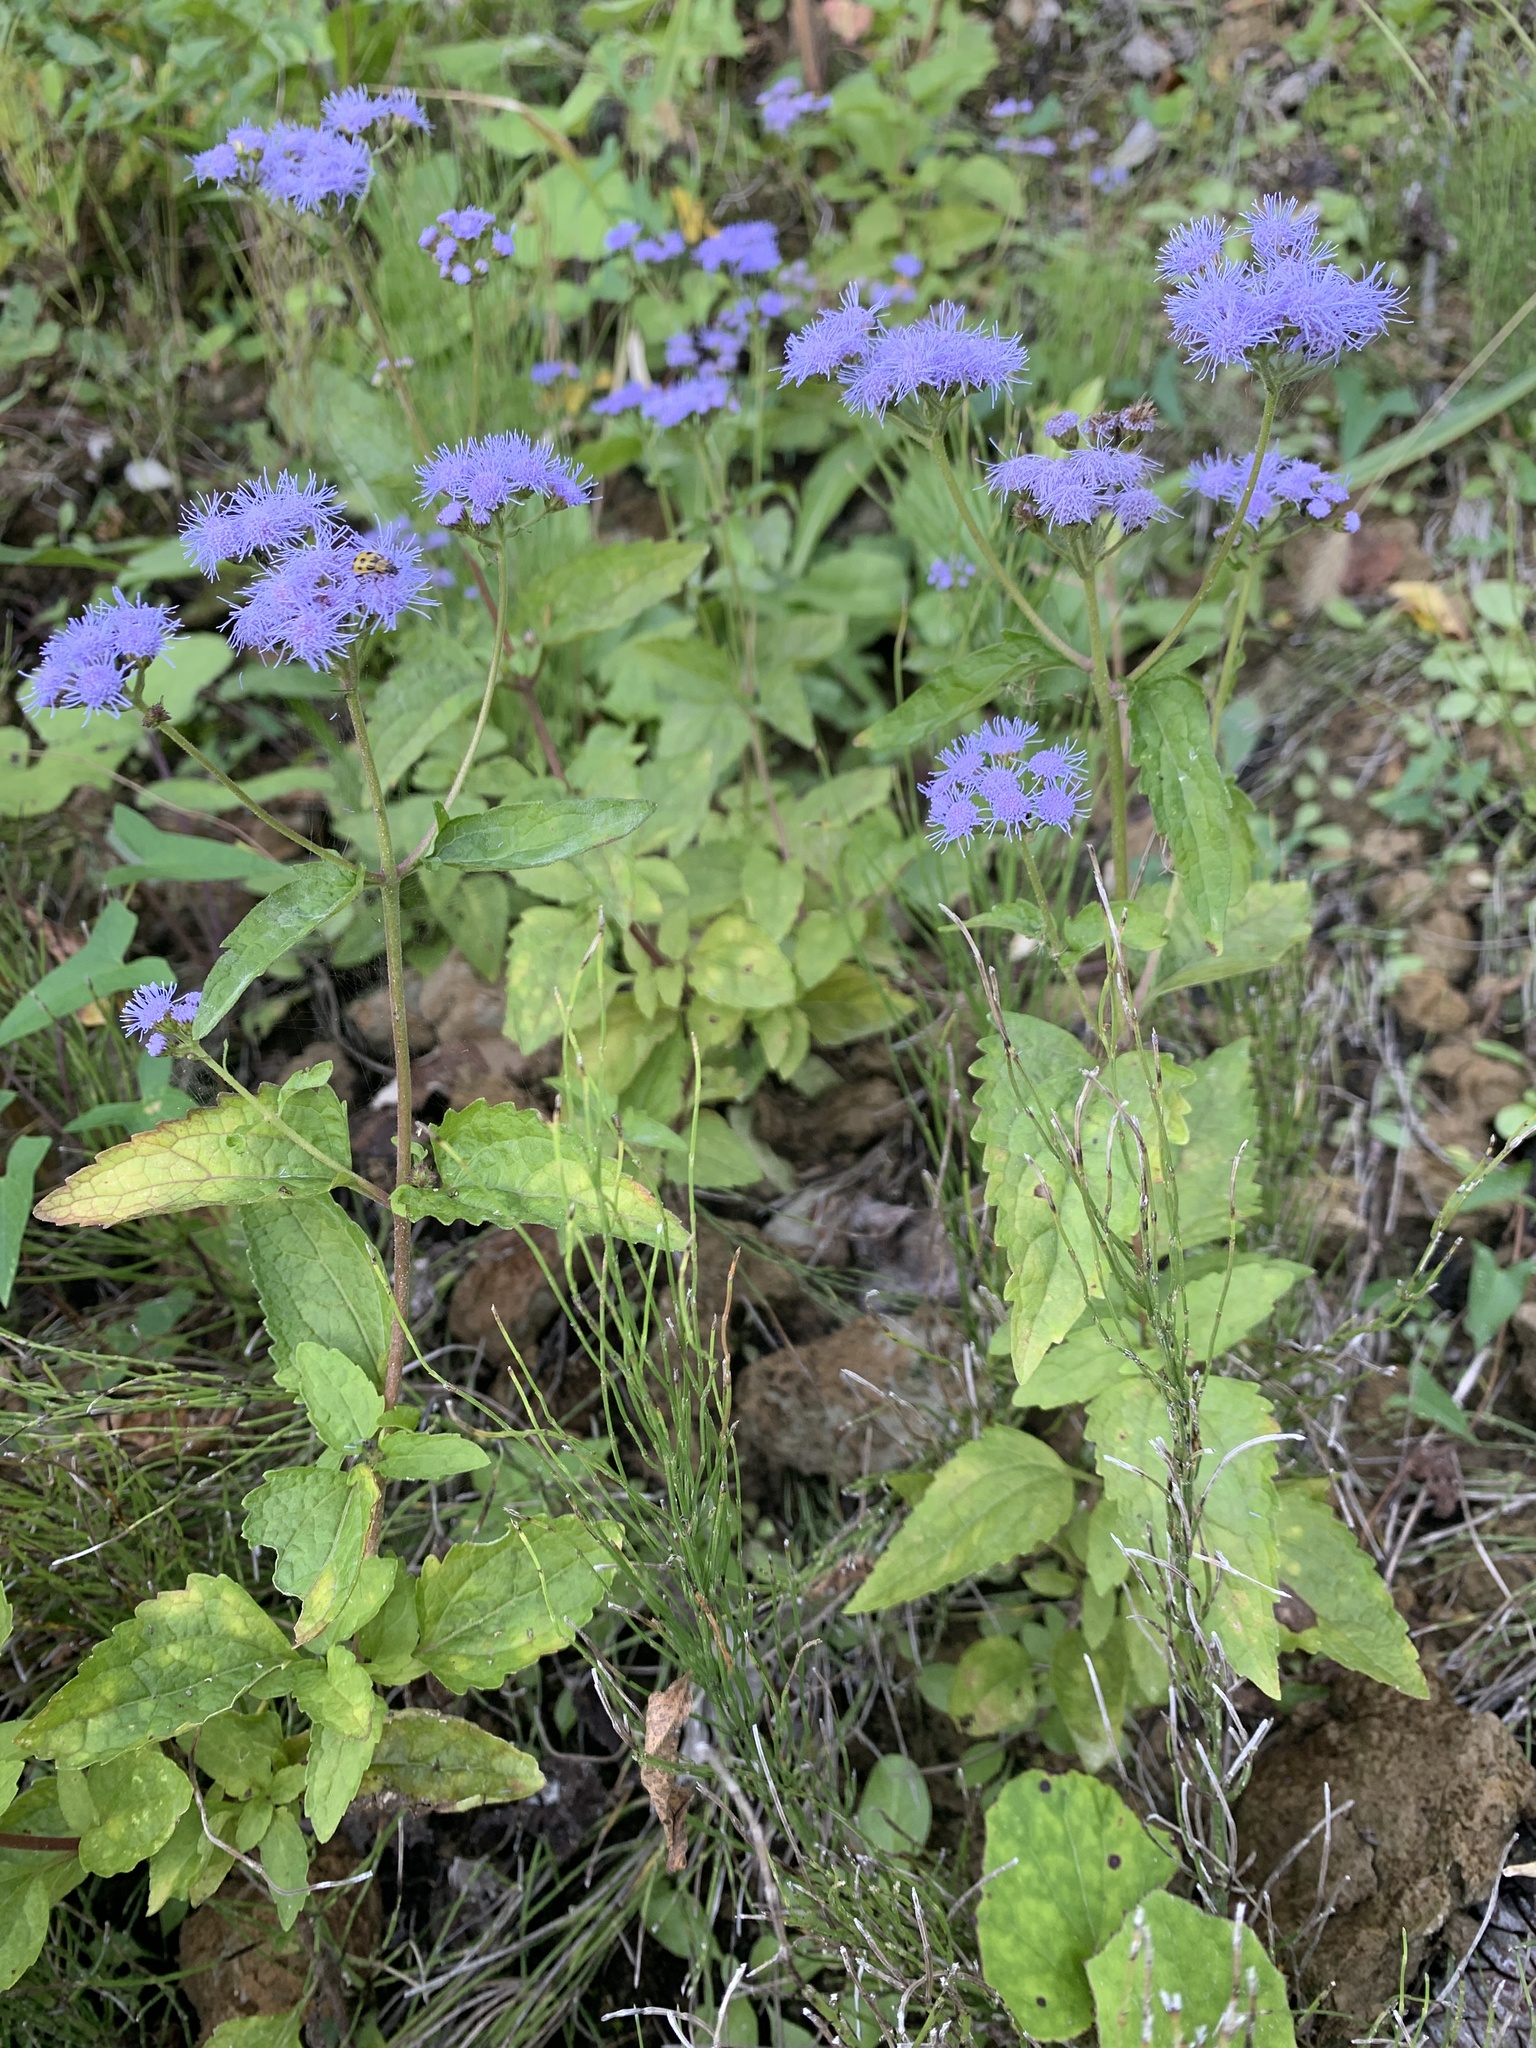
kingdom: Plantae
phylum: Tracheophyta
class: Magnoliopsida
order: Asterales
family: Asteraceae
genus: Conoclinium
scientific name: Conoclinium coelestinum
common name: Blue mistflower
